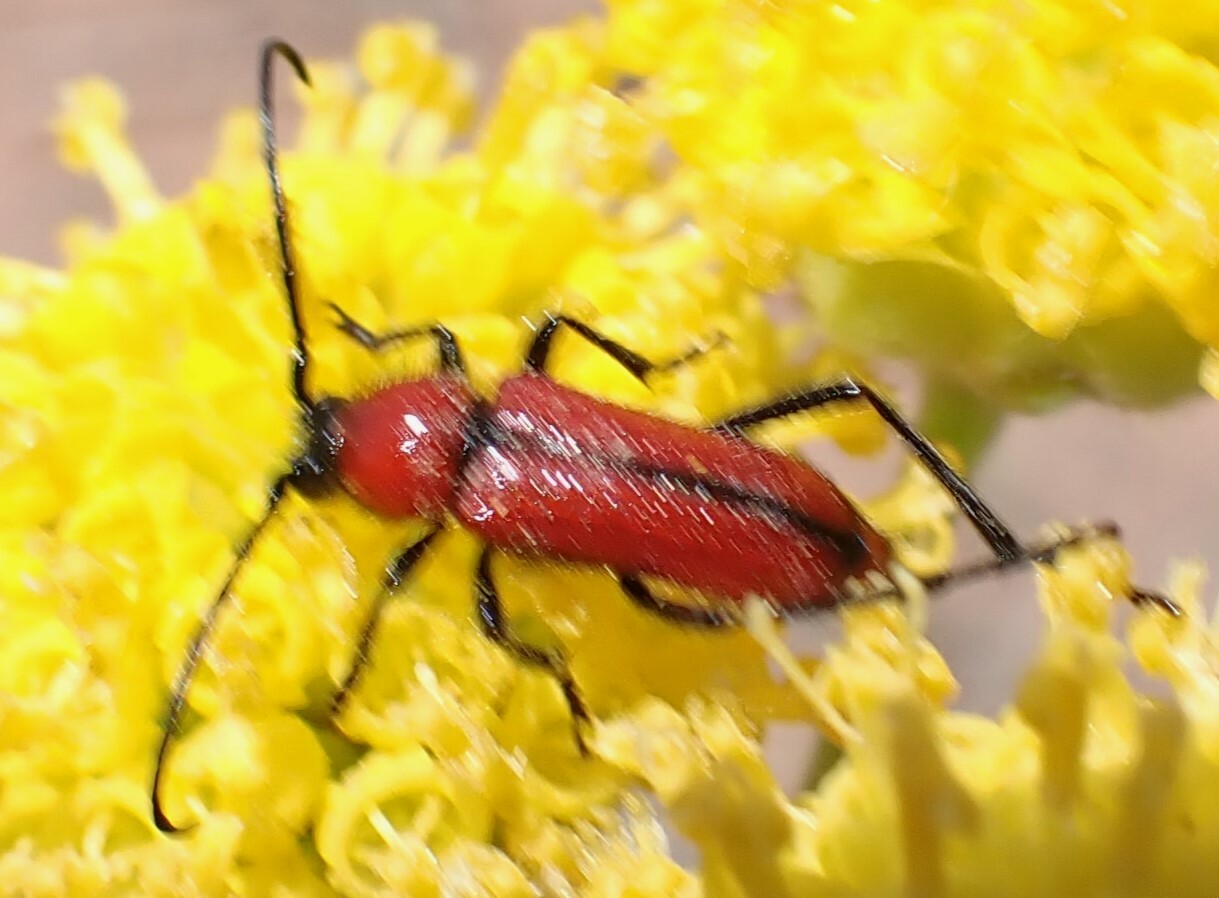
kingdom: Animalia
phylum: Arthropoda
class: Insecta
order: Coleoptera
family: Cerambycidae
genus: Batyle
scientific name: Batyle suturalis
